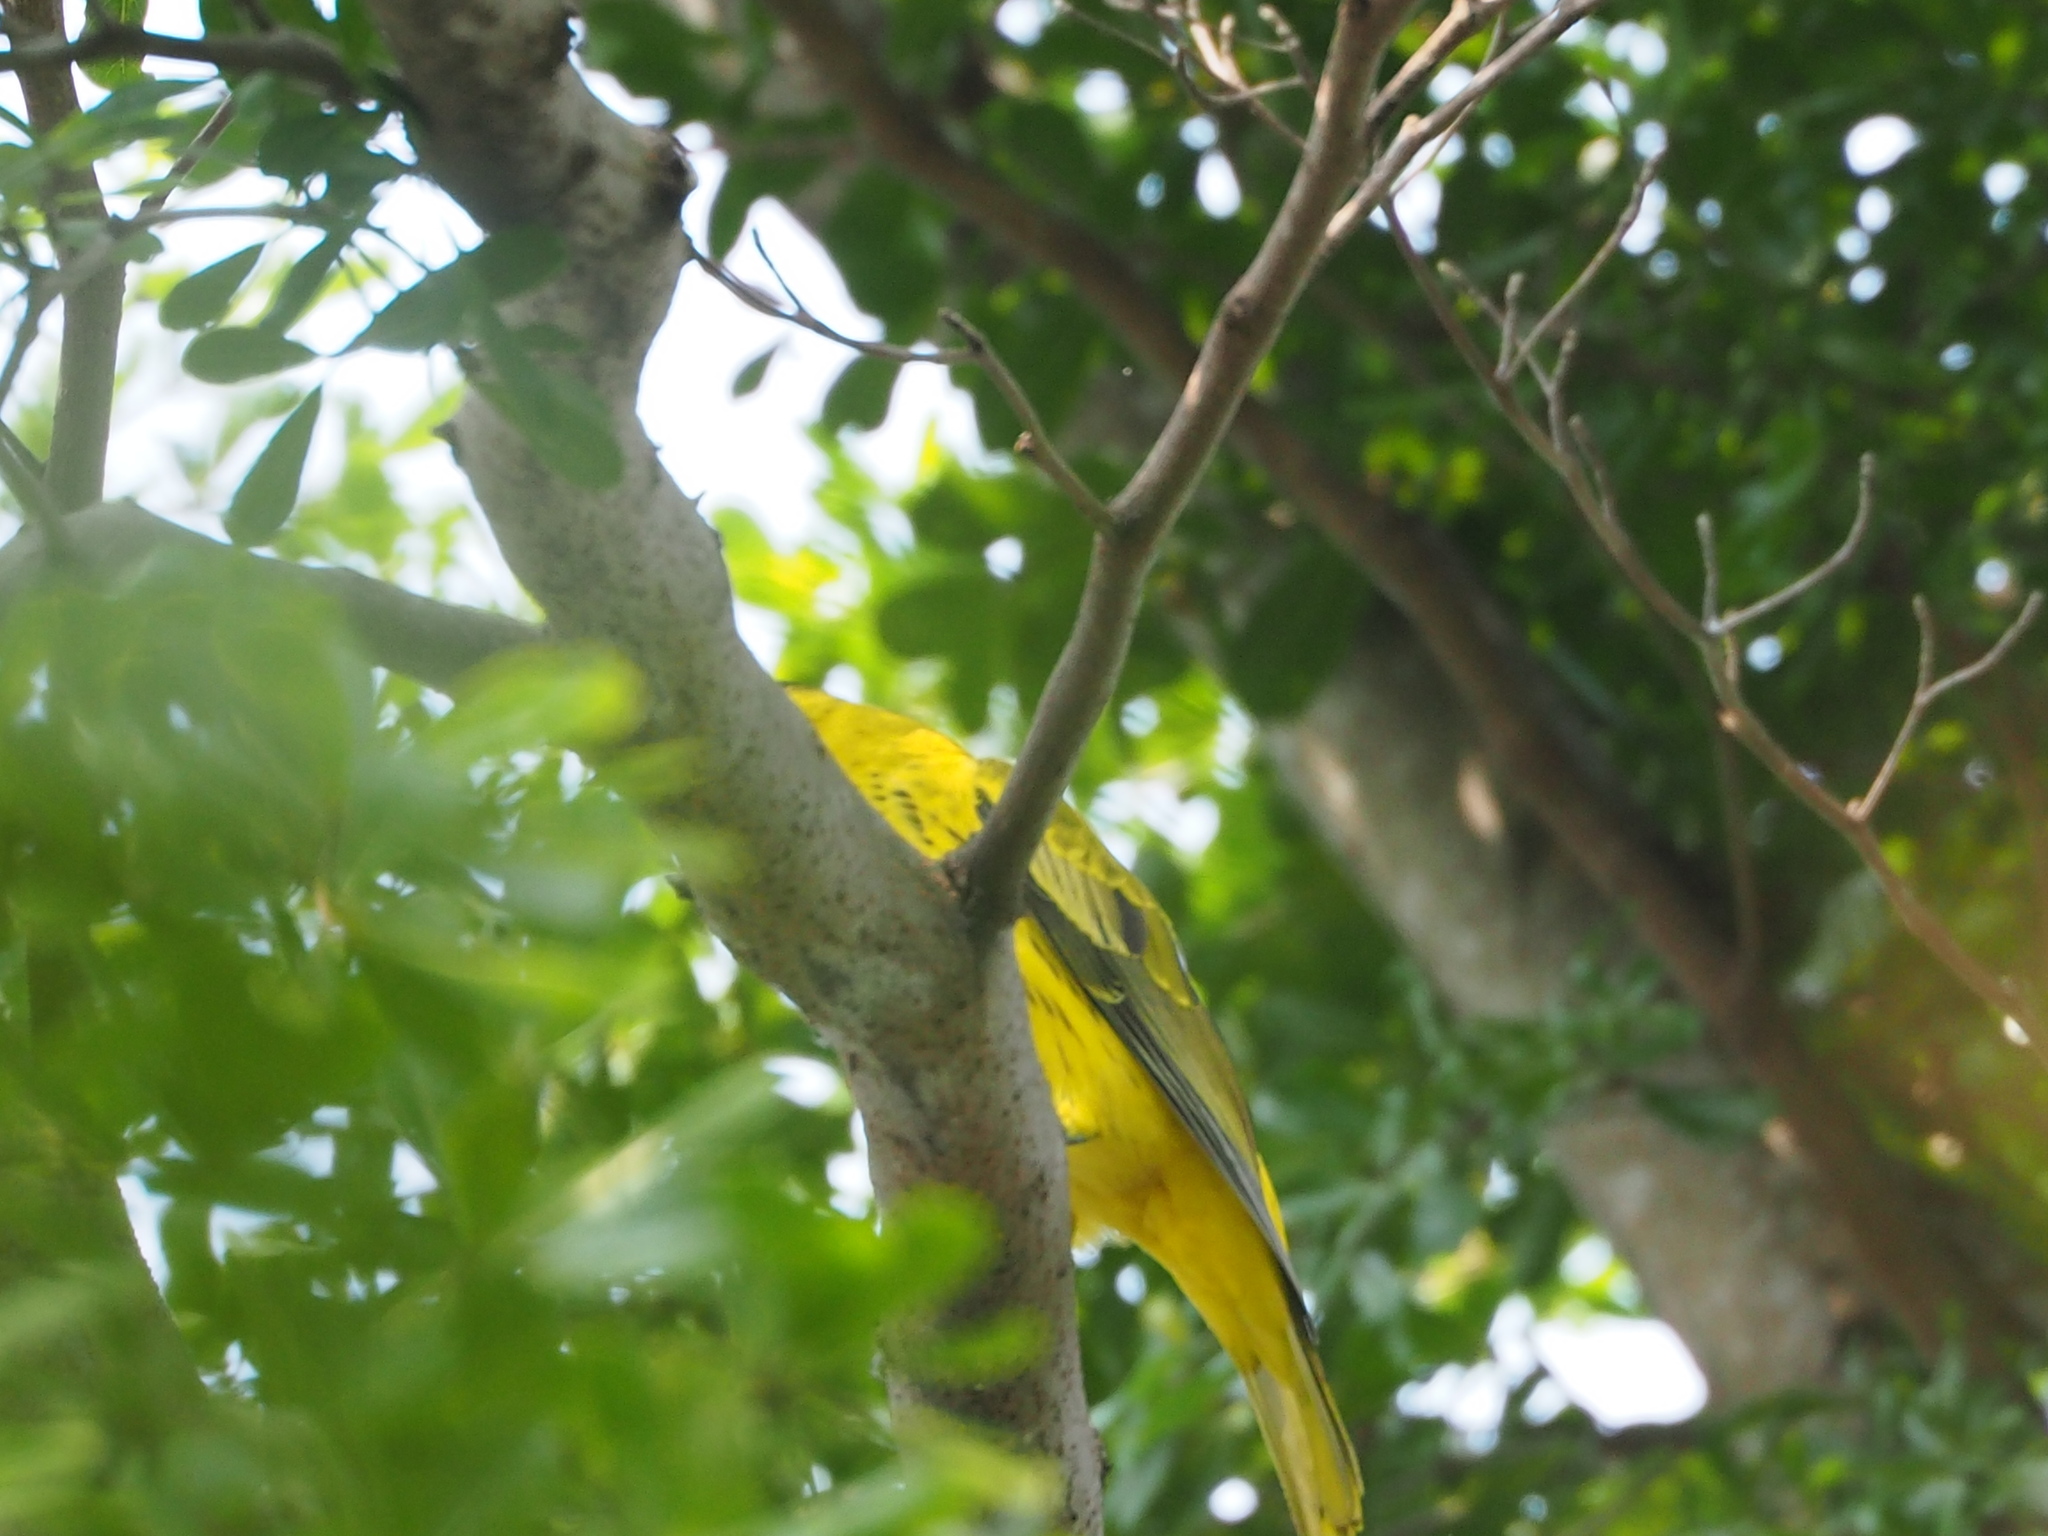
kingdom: Animalia
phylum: Chordata
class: Aves
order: Passeriformes
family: Oriolidae
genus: Oriolus
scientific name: Oriolus chinensis
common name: Black-naped oriole
